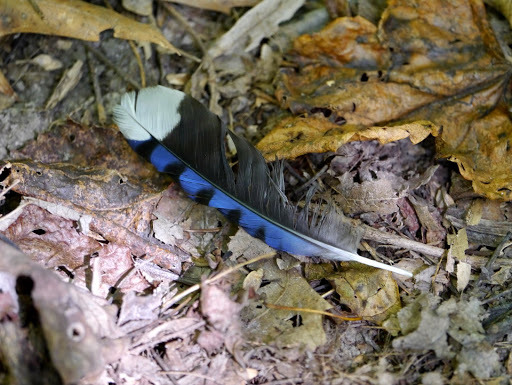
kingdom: Animalia
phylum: Chordata
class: Aves
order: Passeriformes
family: Corvidae
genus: Cyanocitta
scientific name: Cyanocitta cristata
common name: Blue jay
